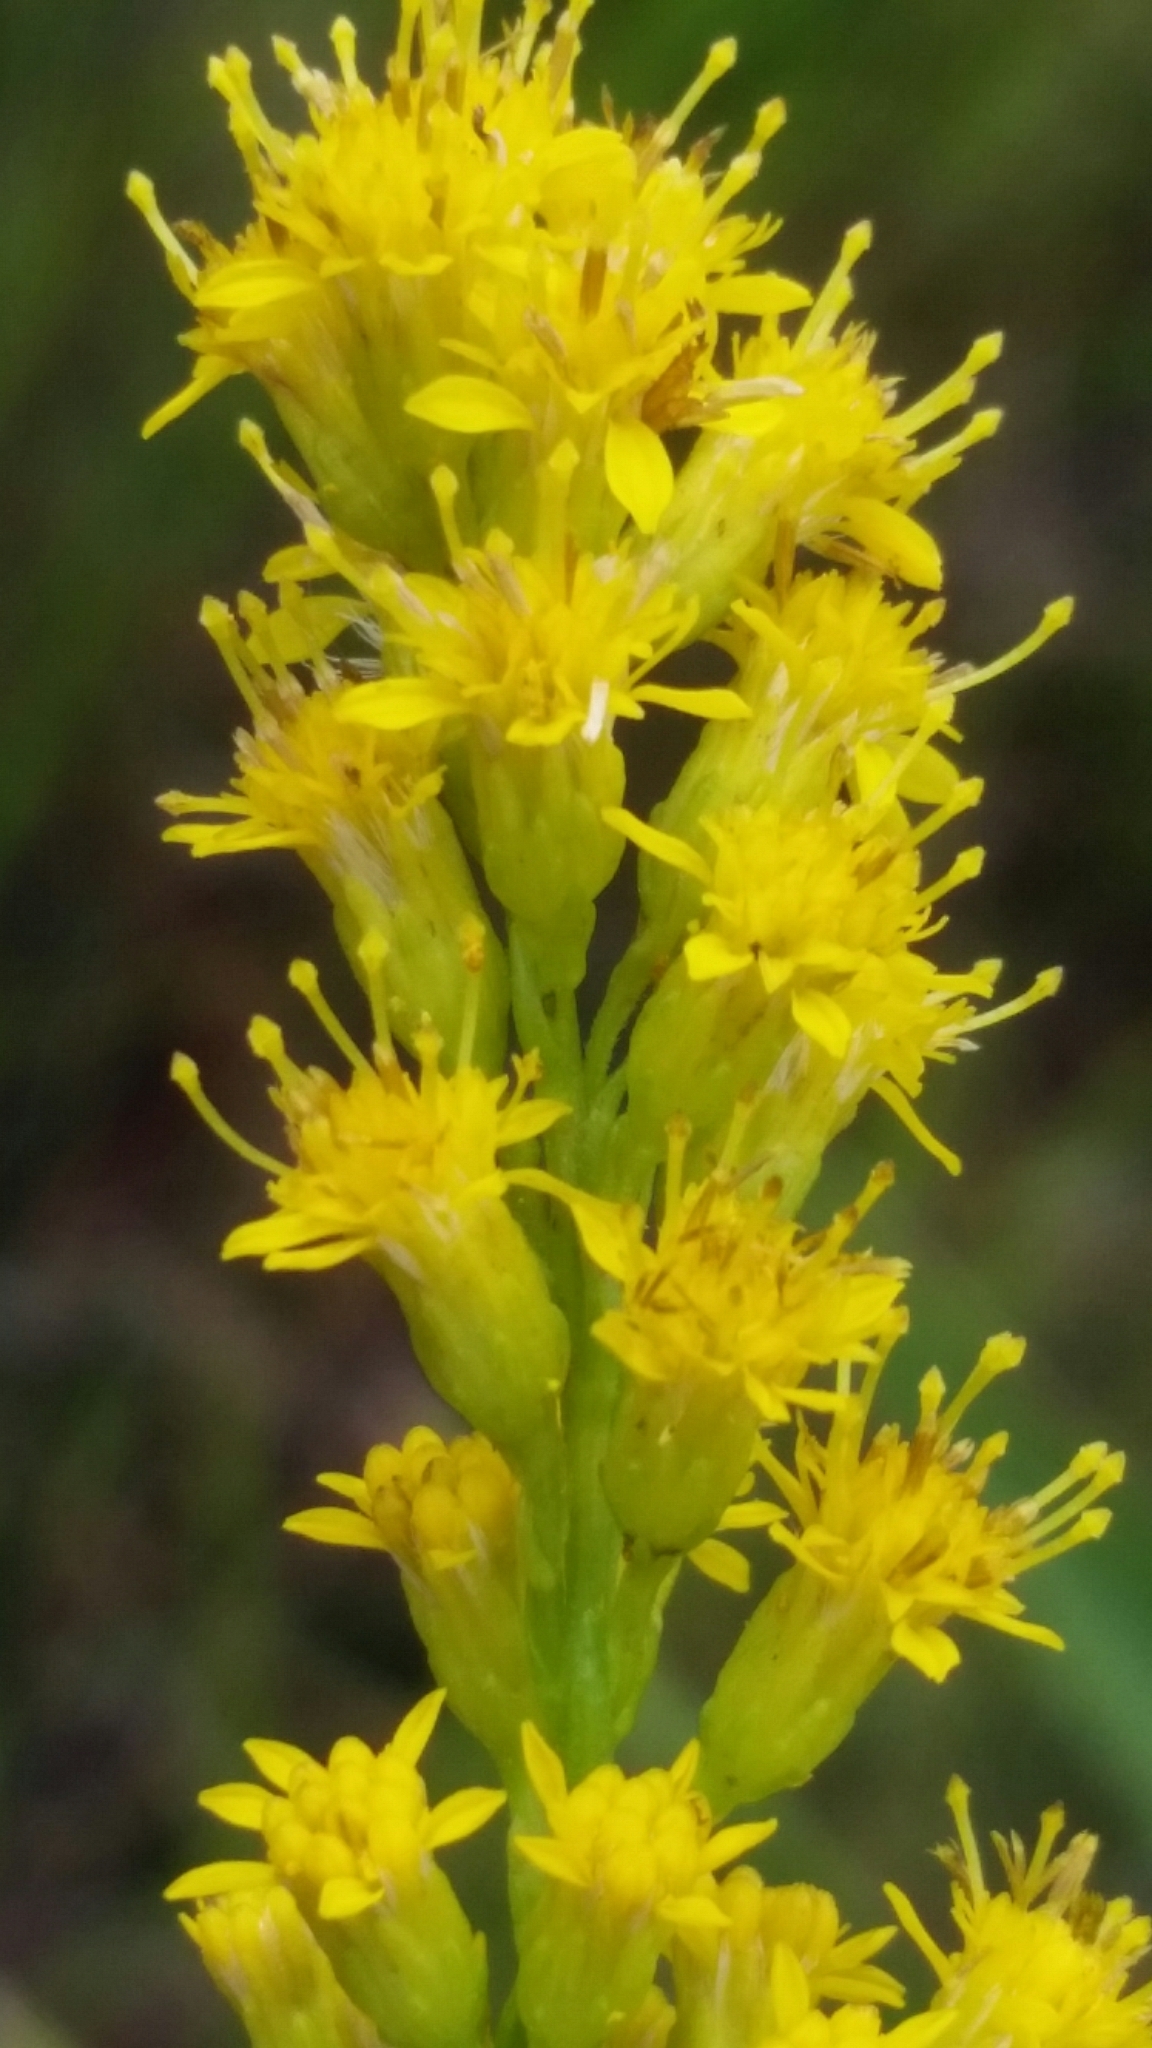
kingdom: Plantae
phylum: Tracheophyta
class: Magnoliopsida
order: Asterales
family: Asteraceae
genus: Solidago
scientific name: Solidago virgata
